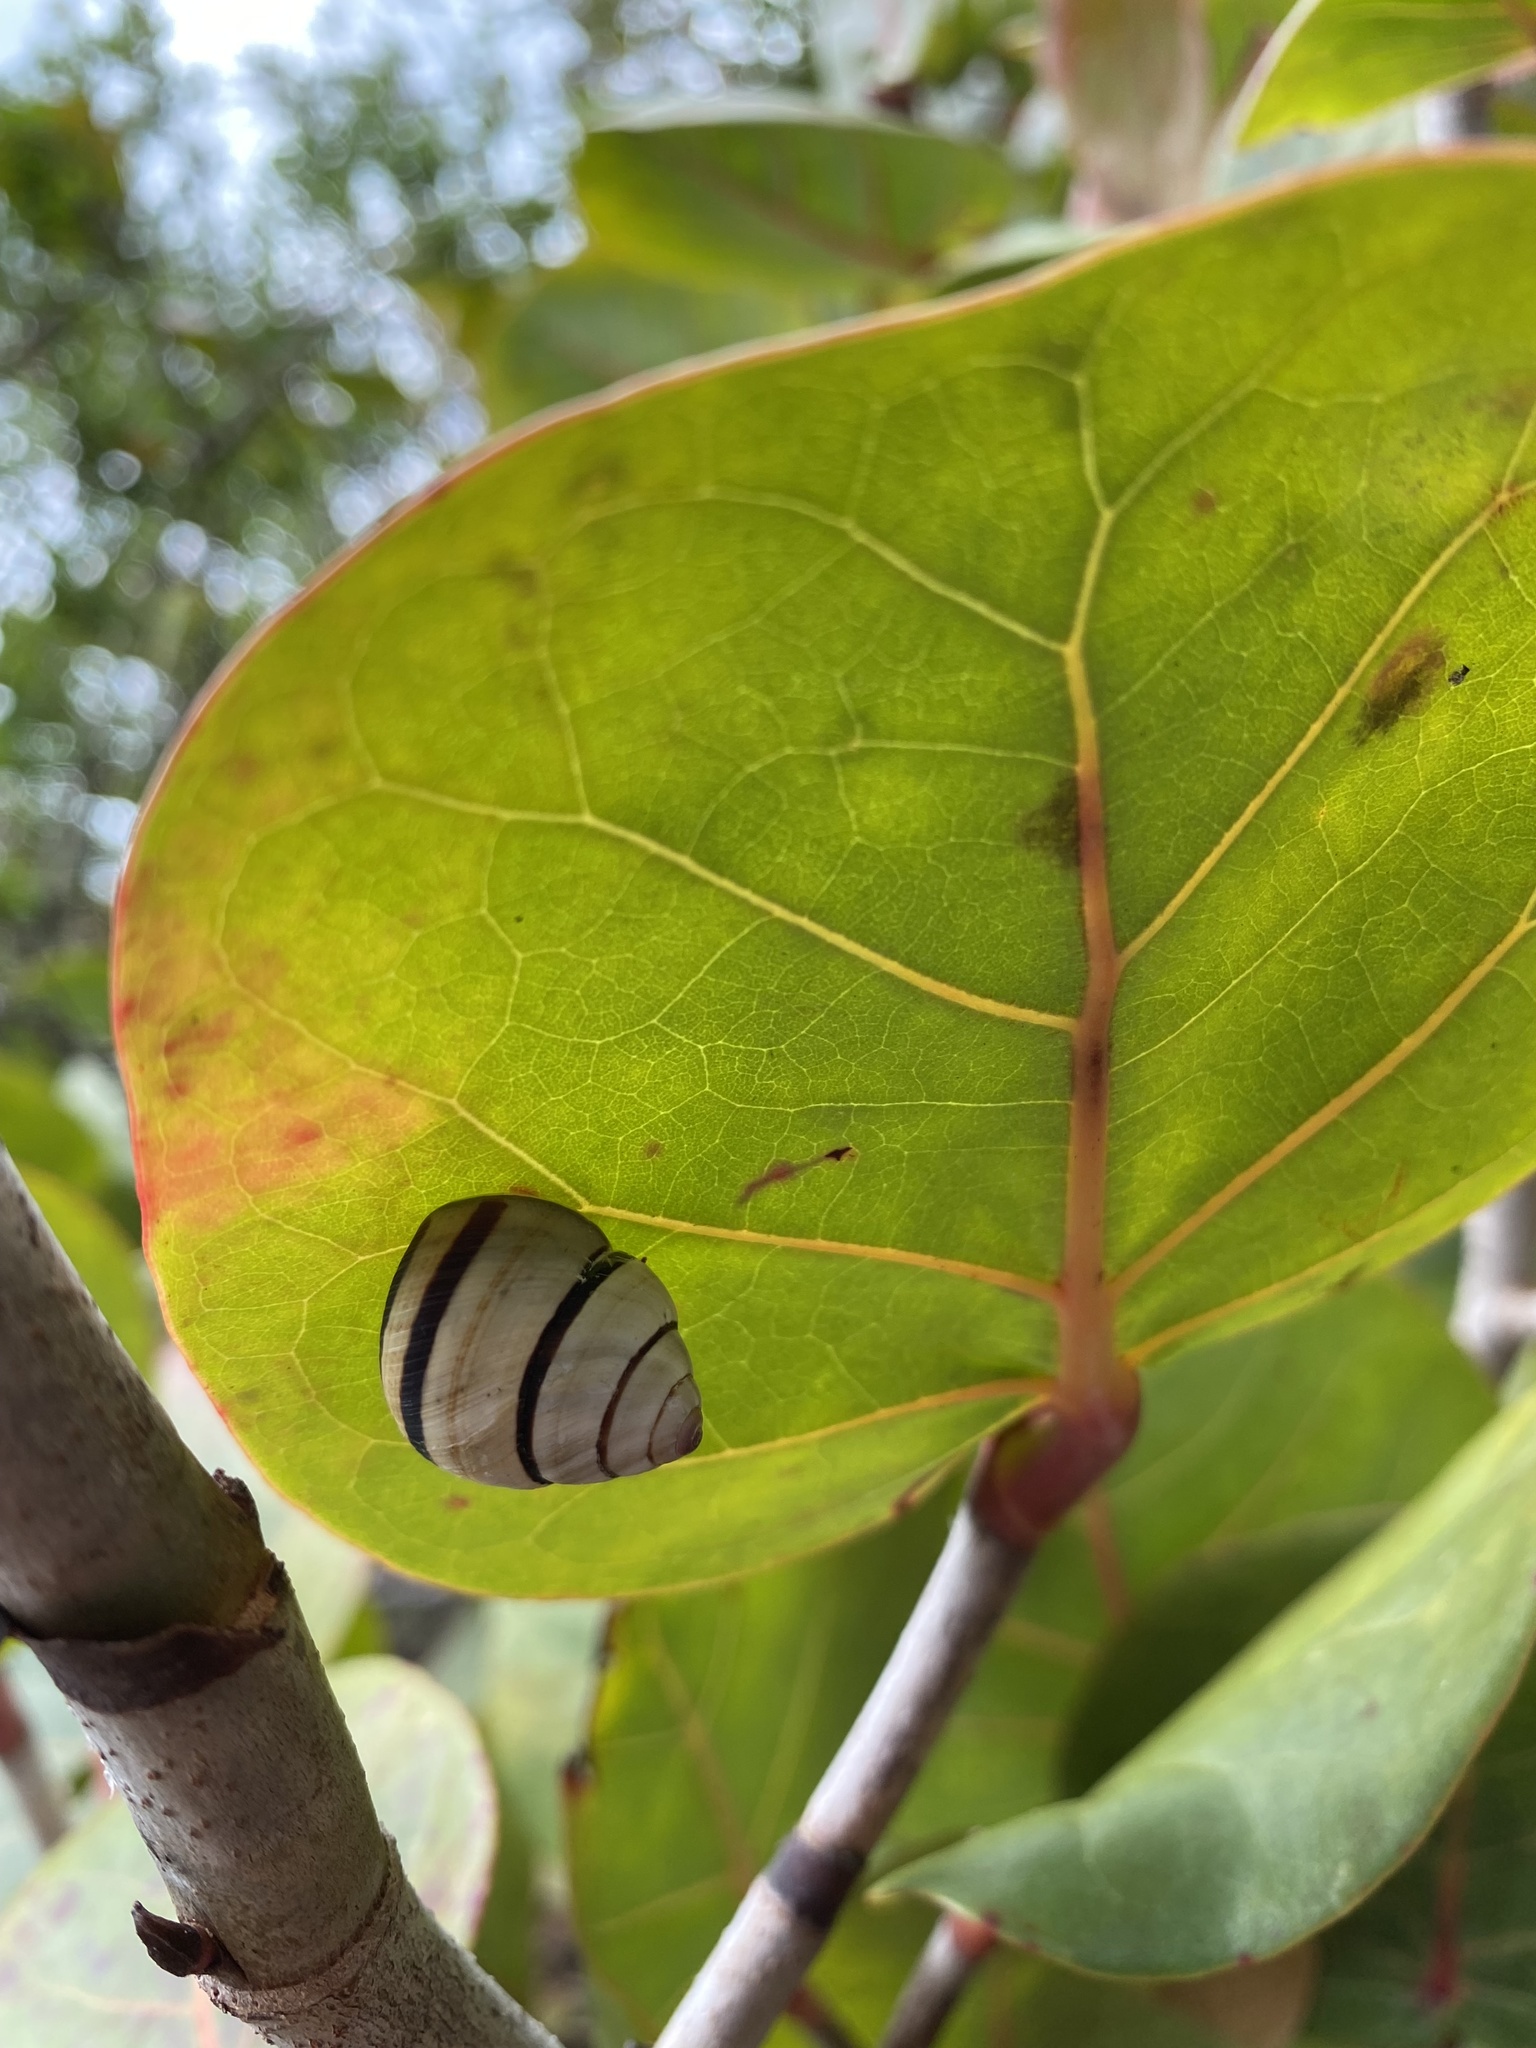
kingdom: Animalia
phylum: Mollusca
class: Gastropoda
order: Stylommatophora
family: Cepolidae
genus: Hemitrochus
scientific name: Hemitrochus varians
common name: Caribbean land snail
